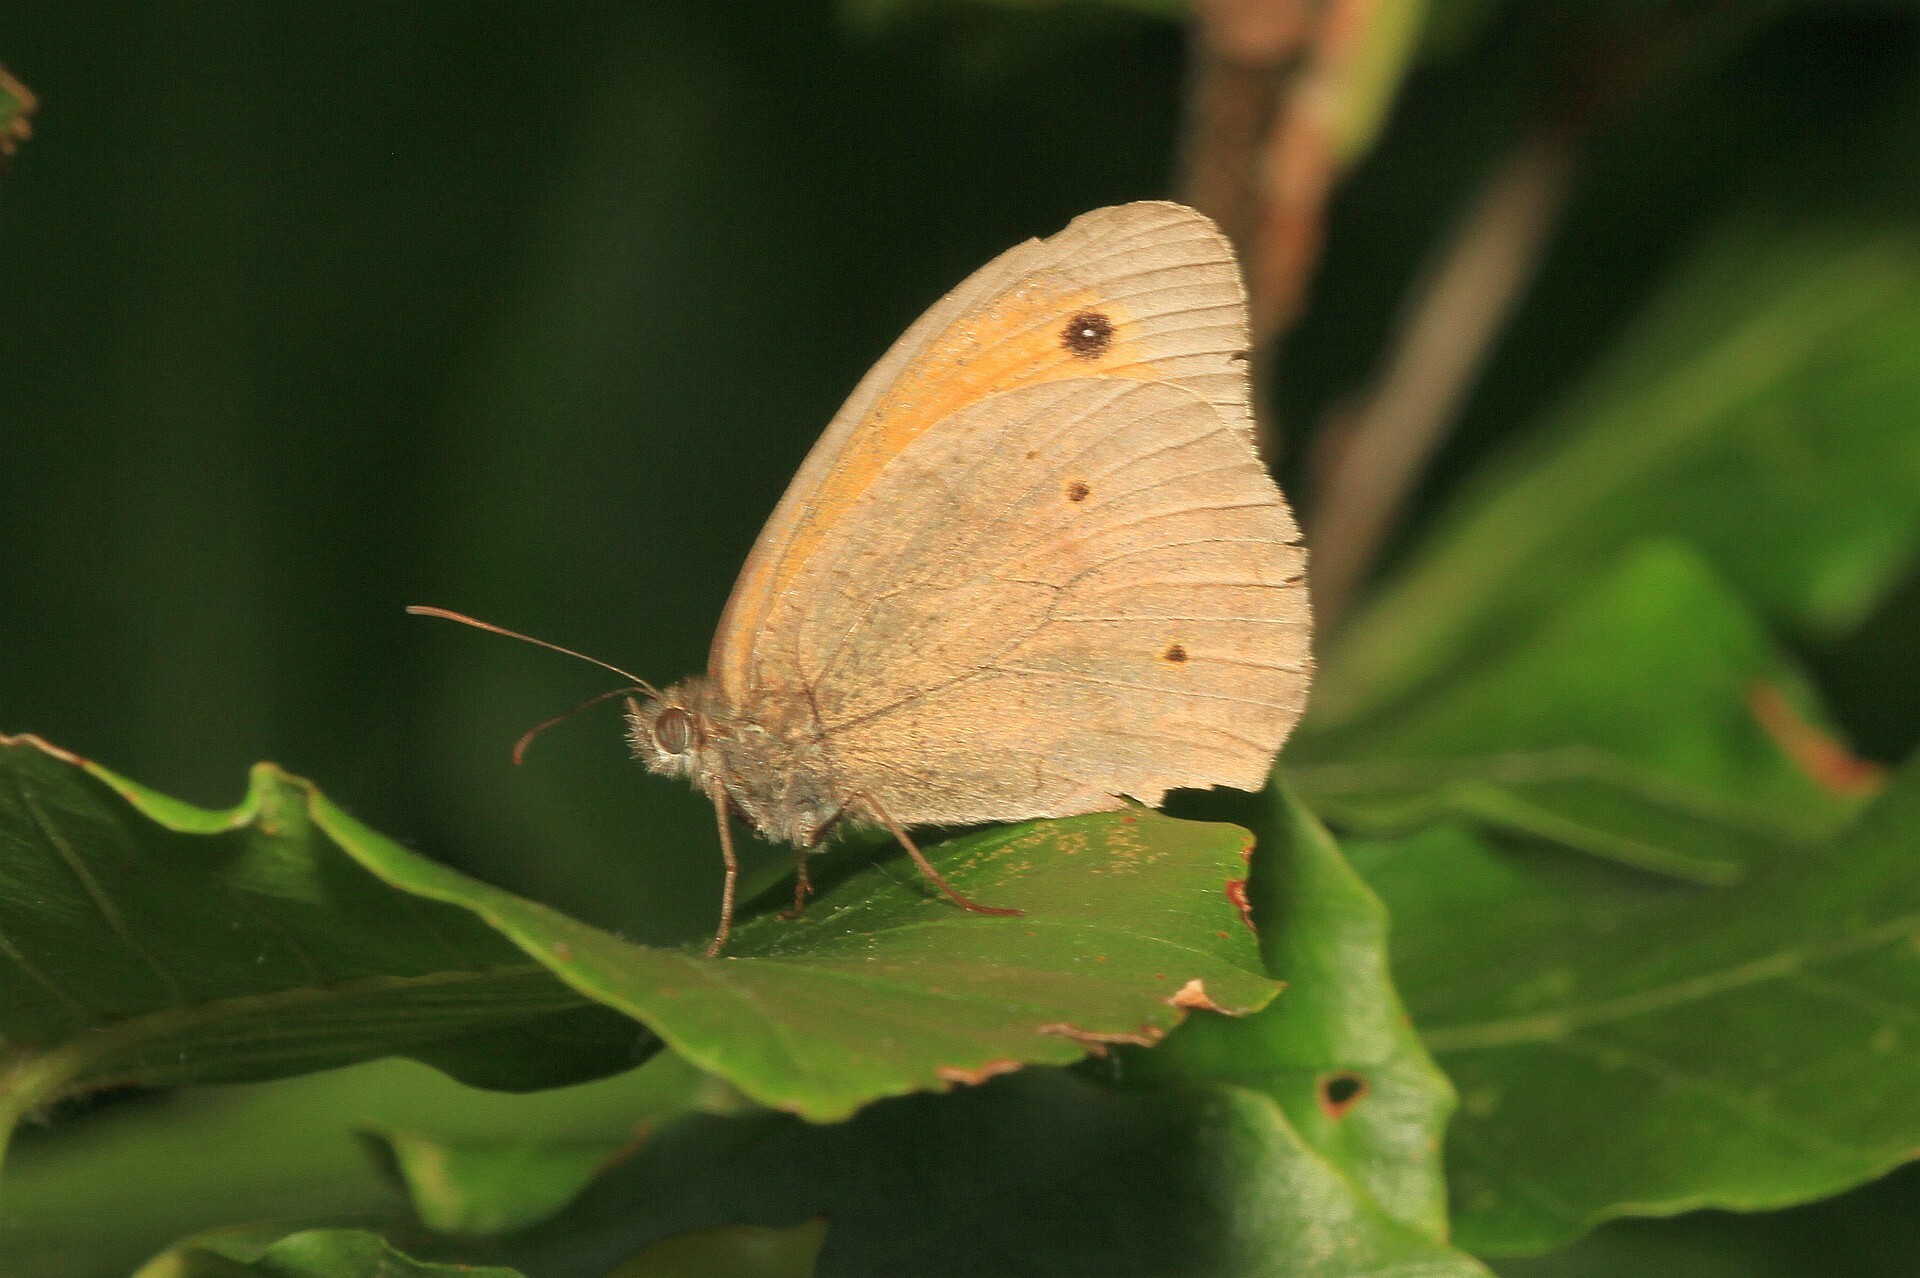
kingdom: Animalia
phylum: Arthropoda
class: Insecta
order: Lepidoptera
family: Nymphalidae
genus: Maniola
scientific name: Maniola jurtina
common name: Meadow brown
